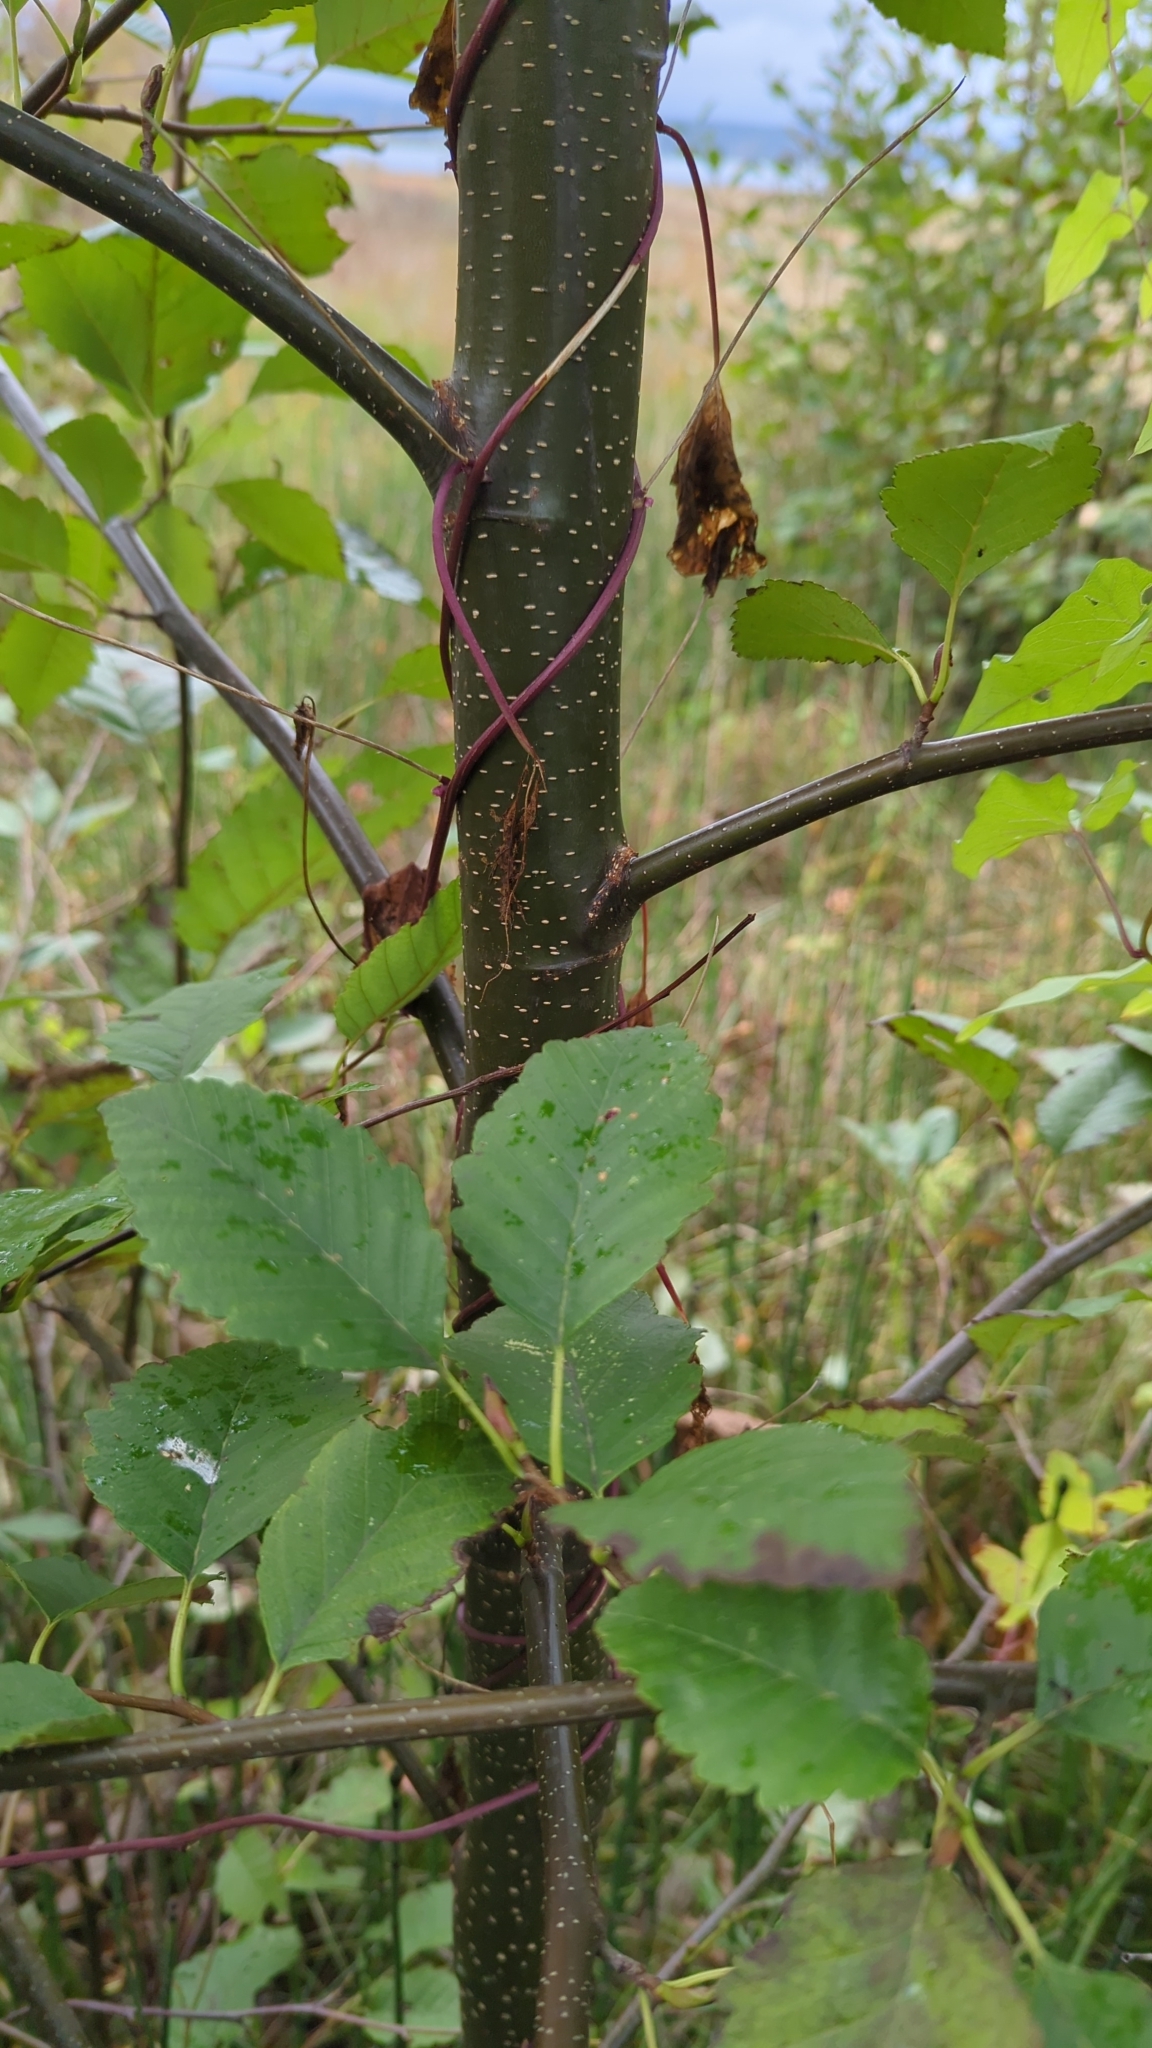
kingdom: Plantae
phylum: Tracheophyta
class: Magnoliopsida
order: Fagales
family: Betulaceae
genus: Alnus
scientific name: Alnus rubra
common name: Red alder
